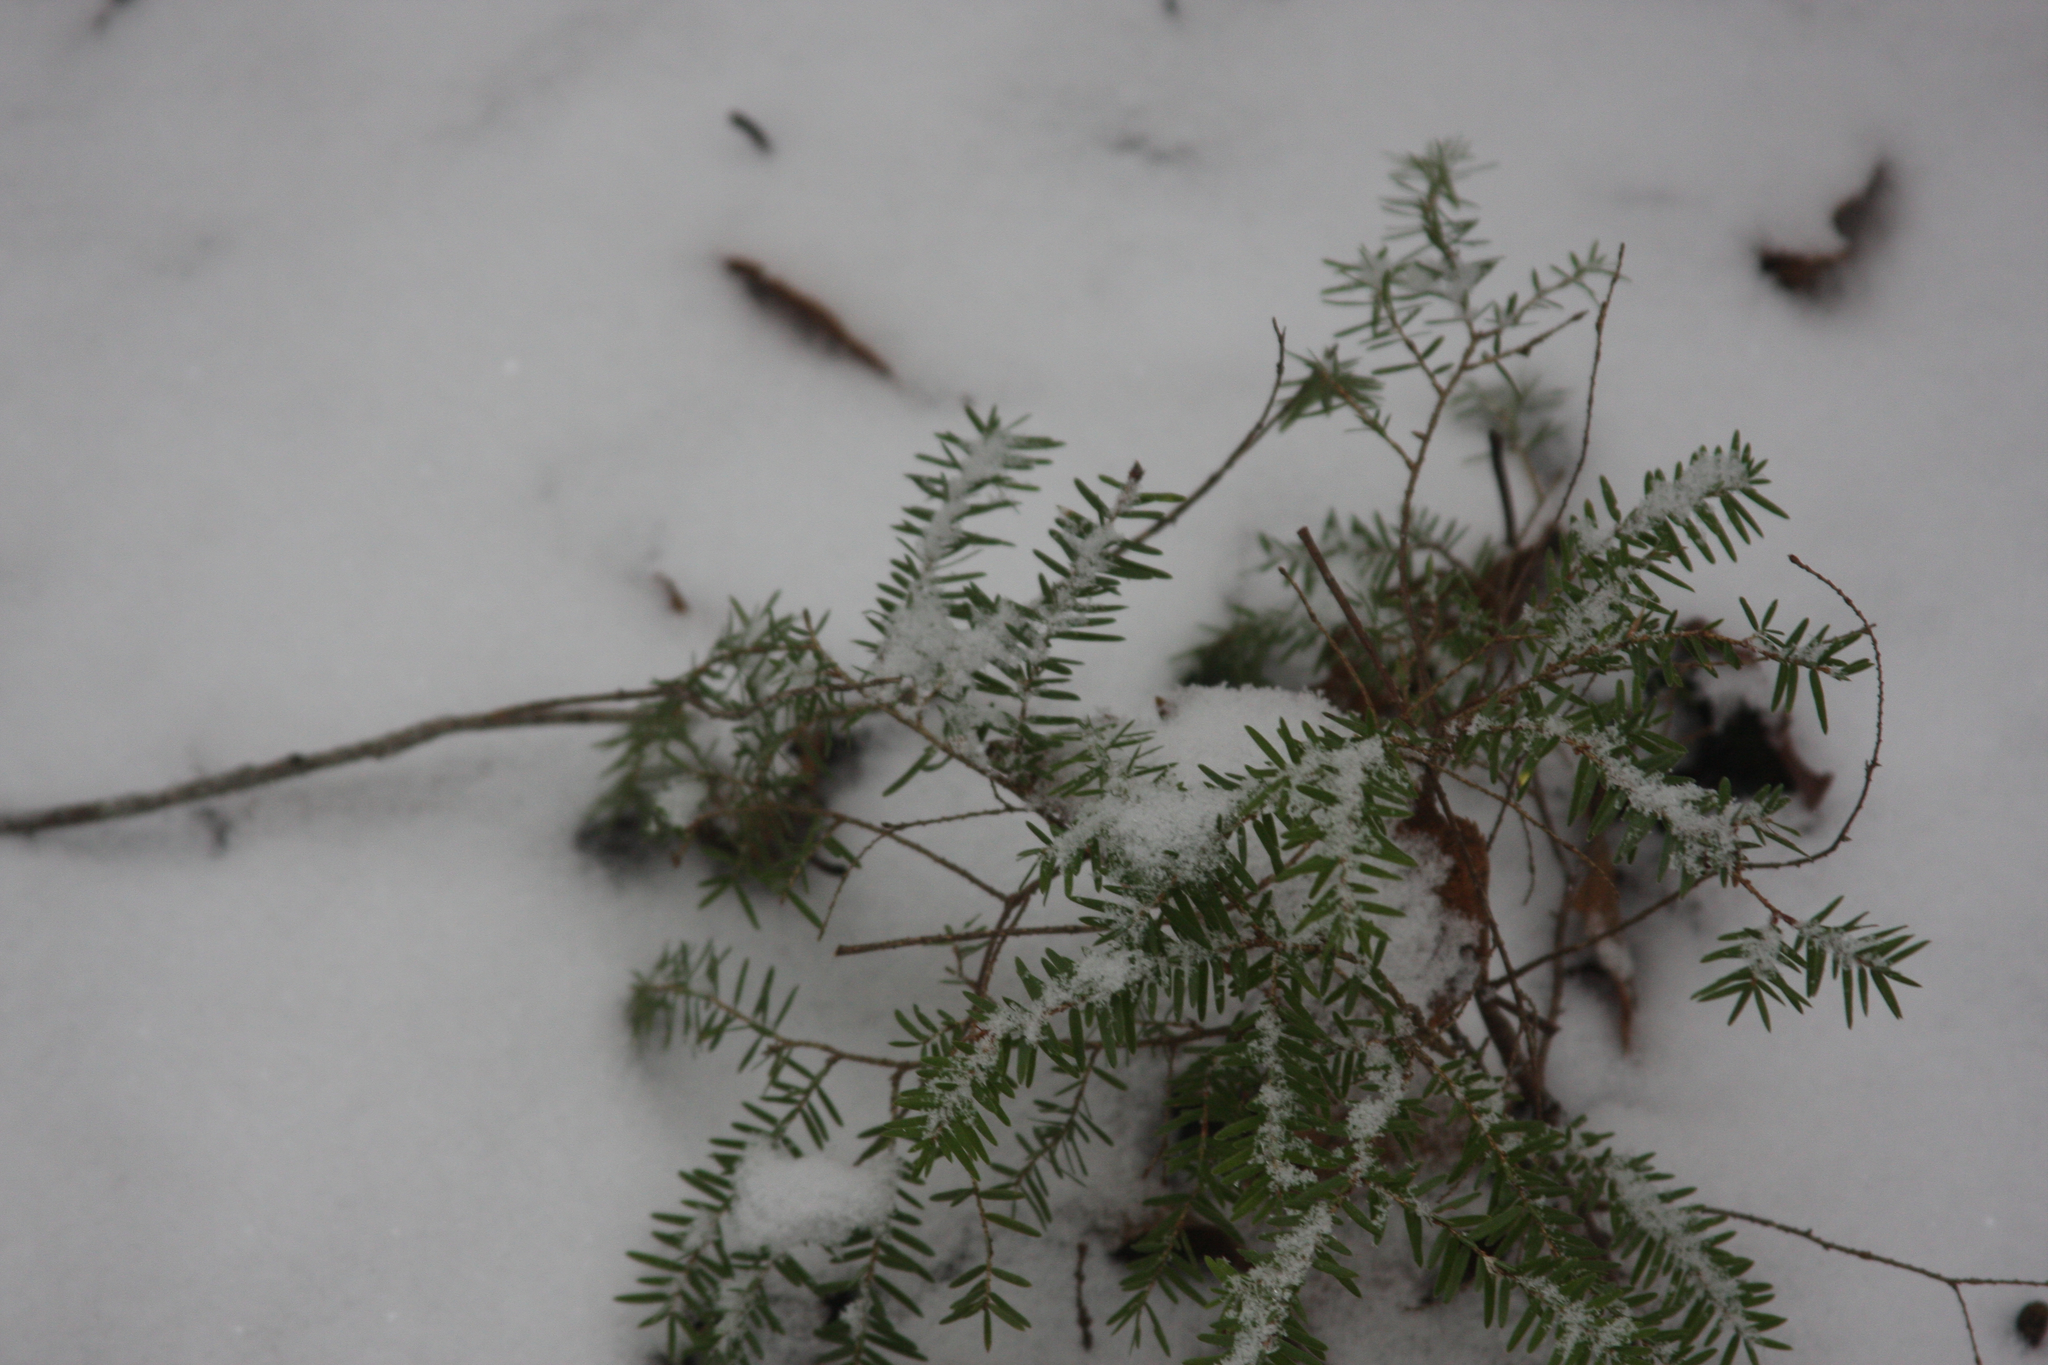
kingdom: Plantae
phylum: Tracheophyta
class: Pinopsida
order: Pinales
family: Pinaceae
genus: Tsuga
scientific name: Tsuga canadensis
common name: Eastern hemlock
